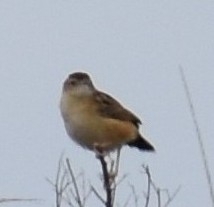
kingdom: Animalia
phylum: Chordata
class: Aves
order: Passeriformes
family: Cisticolidae
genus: Cisticola
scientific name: Cisticola juncidis
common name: Zitting cisticola
